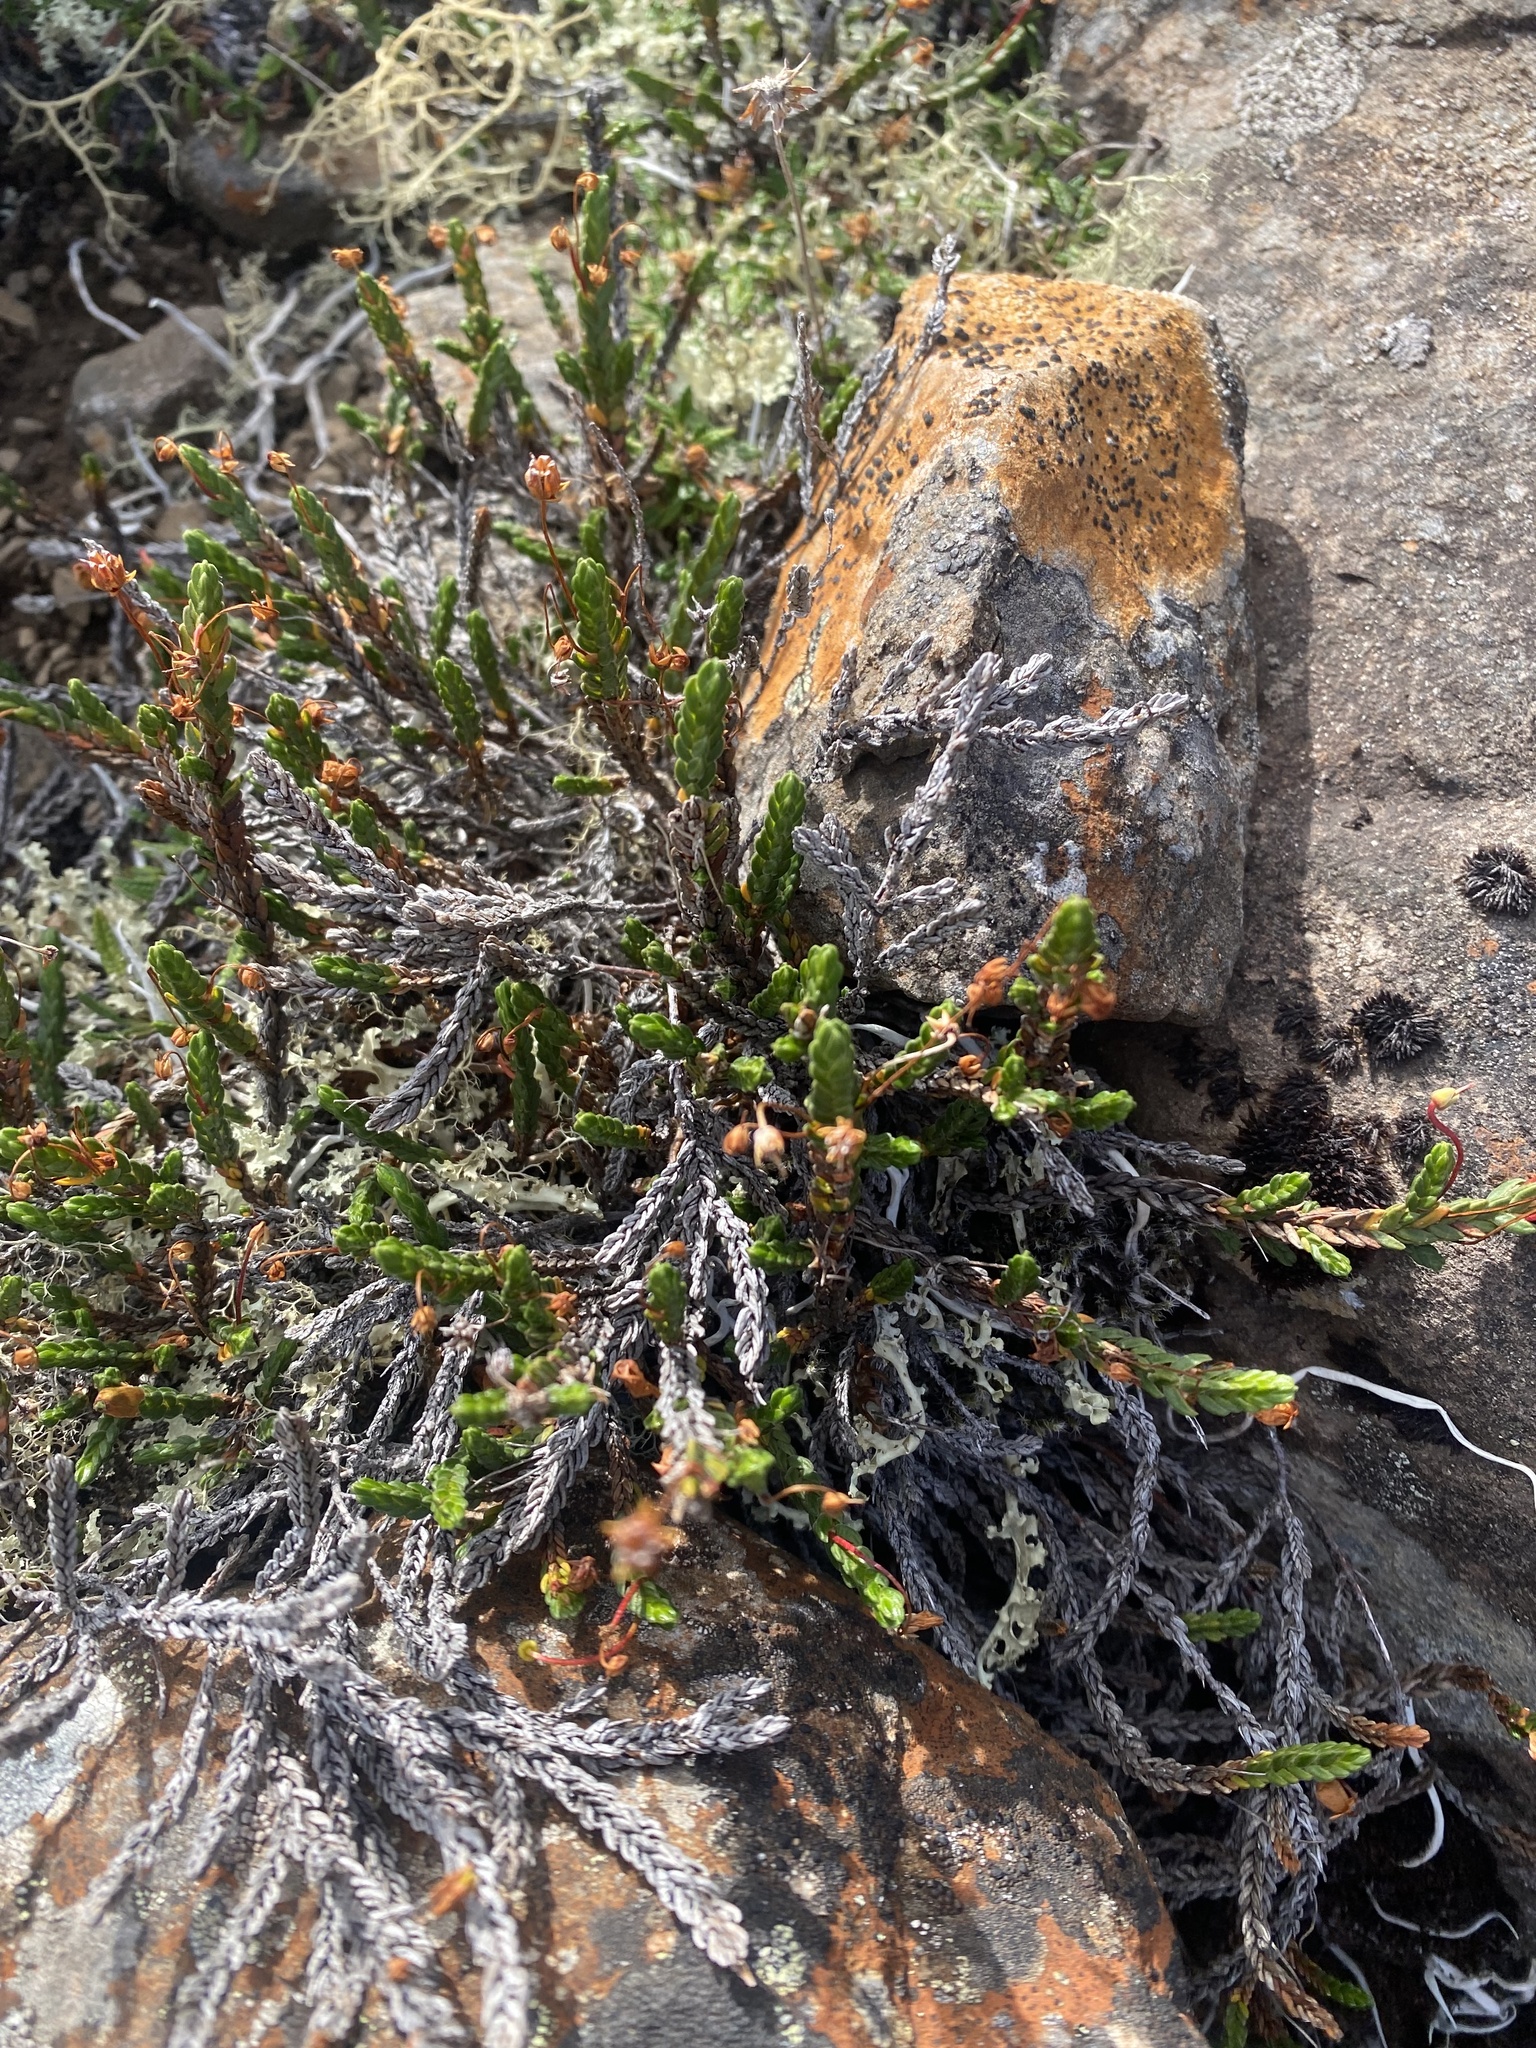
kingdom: Plantae
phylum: Tracheophyta
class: Magnoliopsida
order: Ericales
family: Ericaceae
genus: Cassiope
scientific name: Cassiope tetragona
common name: Arctic bell heather
